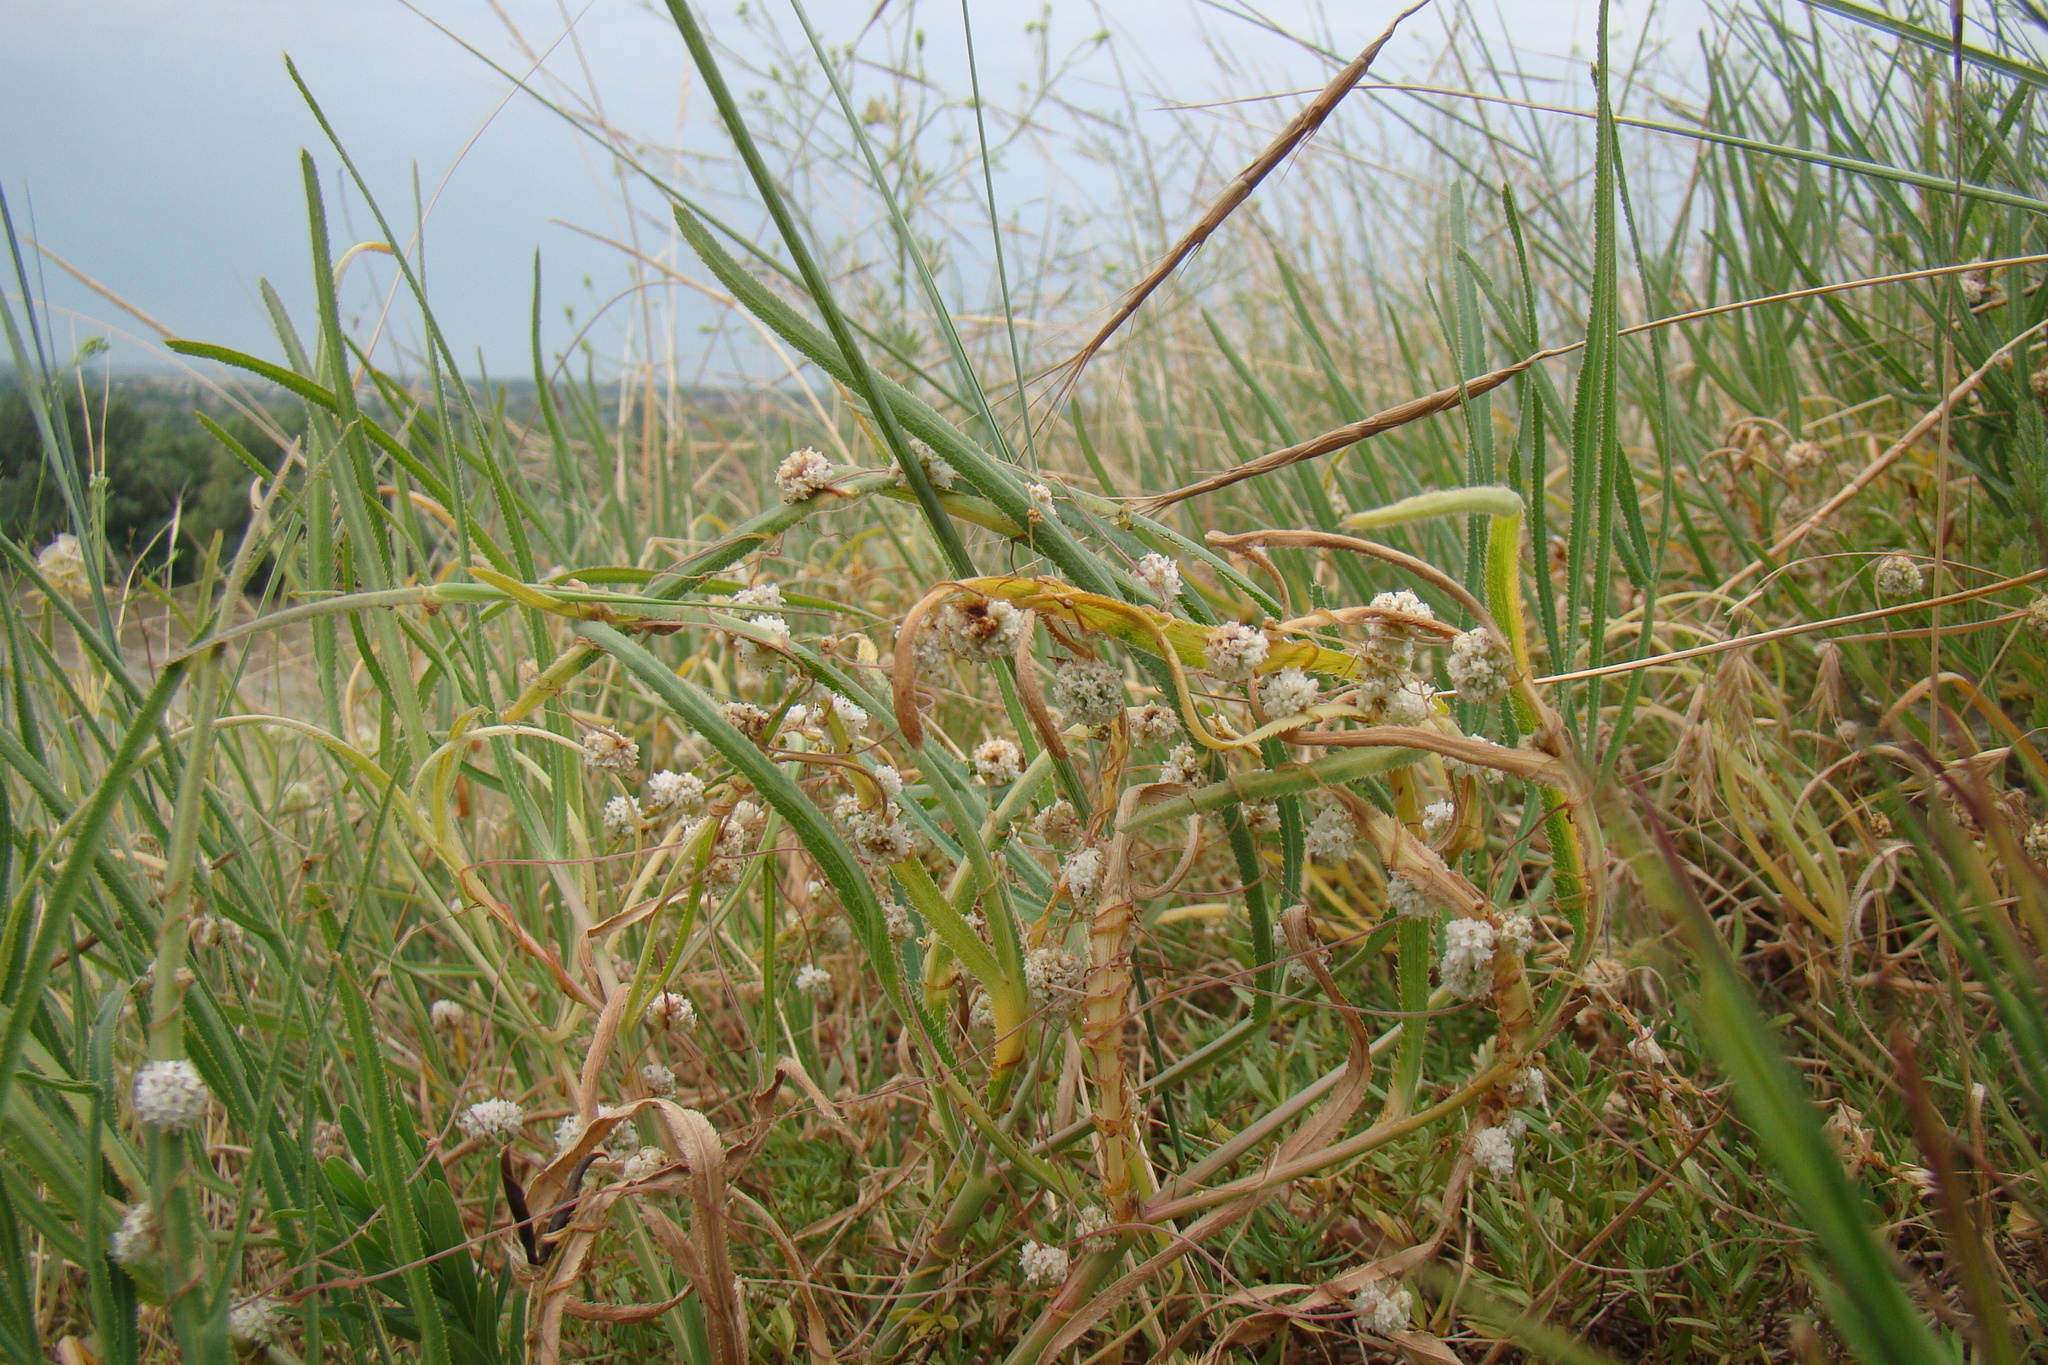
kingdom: Plantae
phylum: Tracheophyta
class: Magnoliopsida
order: Solanales
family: Convolvulaceae
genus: Cuscuta
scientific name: Cuscuta approximata
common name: Alfalfa dodder
